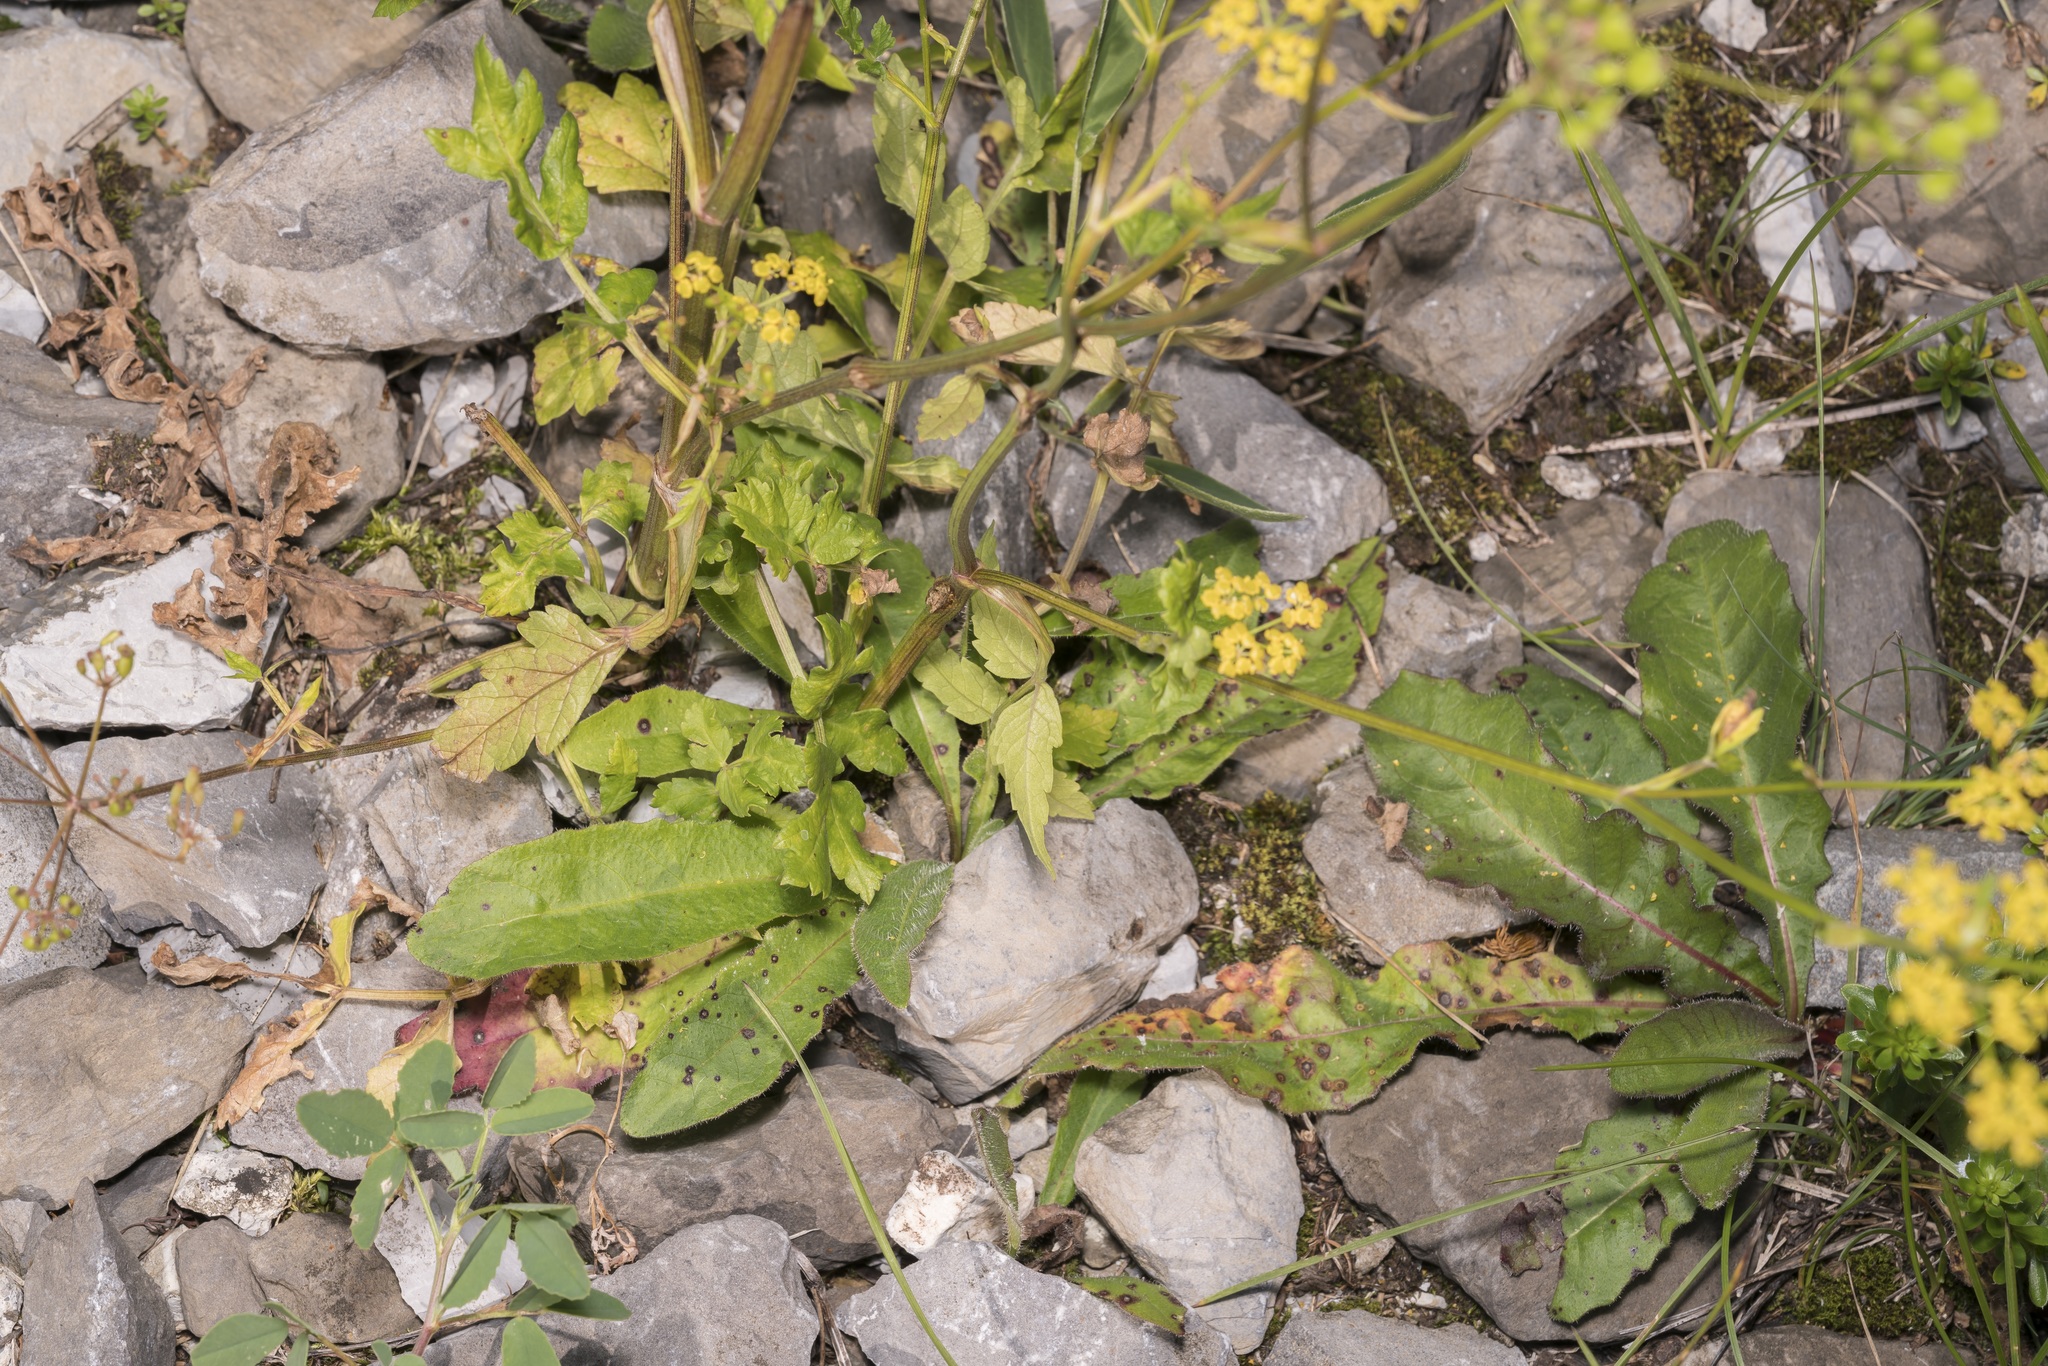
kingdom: Plantae
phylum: Tracheophyta
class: Magnoliopsida
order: Apiales
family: Apiaceae
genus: Pastinaca
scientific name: Pastinaca sativa
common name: Wild parsnip
